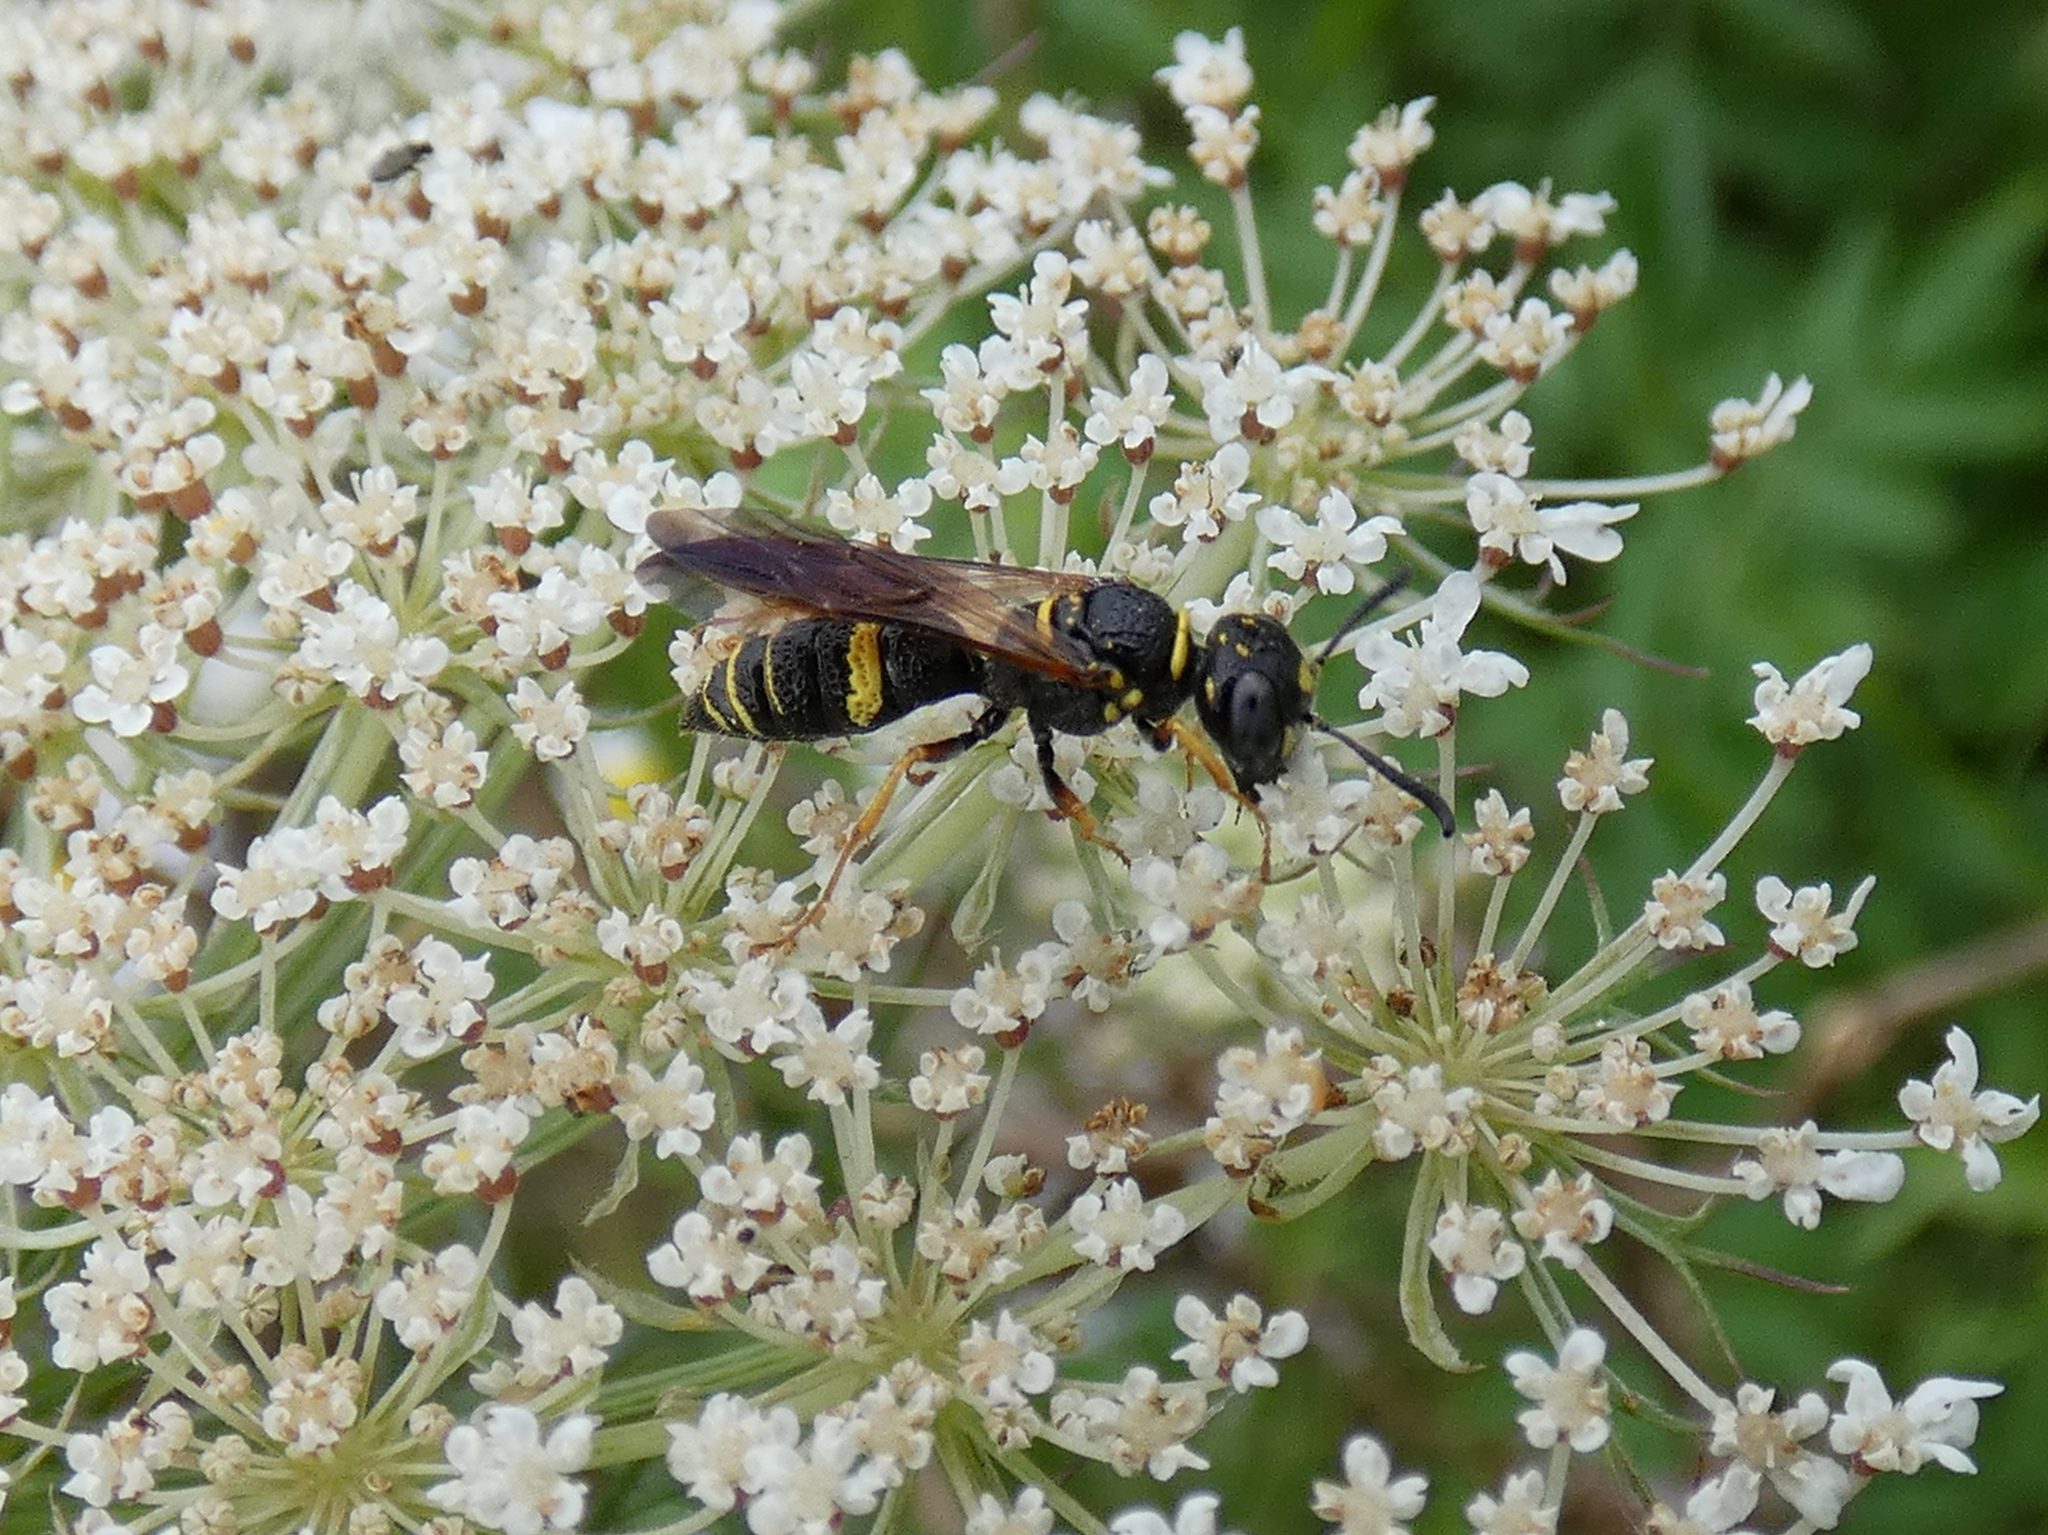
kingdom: Animalia
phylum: Arthropoda
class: Insecta
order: Hymenoptera
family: Crabronidae
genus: Philanthus
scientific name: Philanthus gibbosus
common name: Humped beewolf
